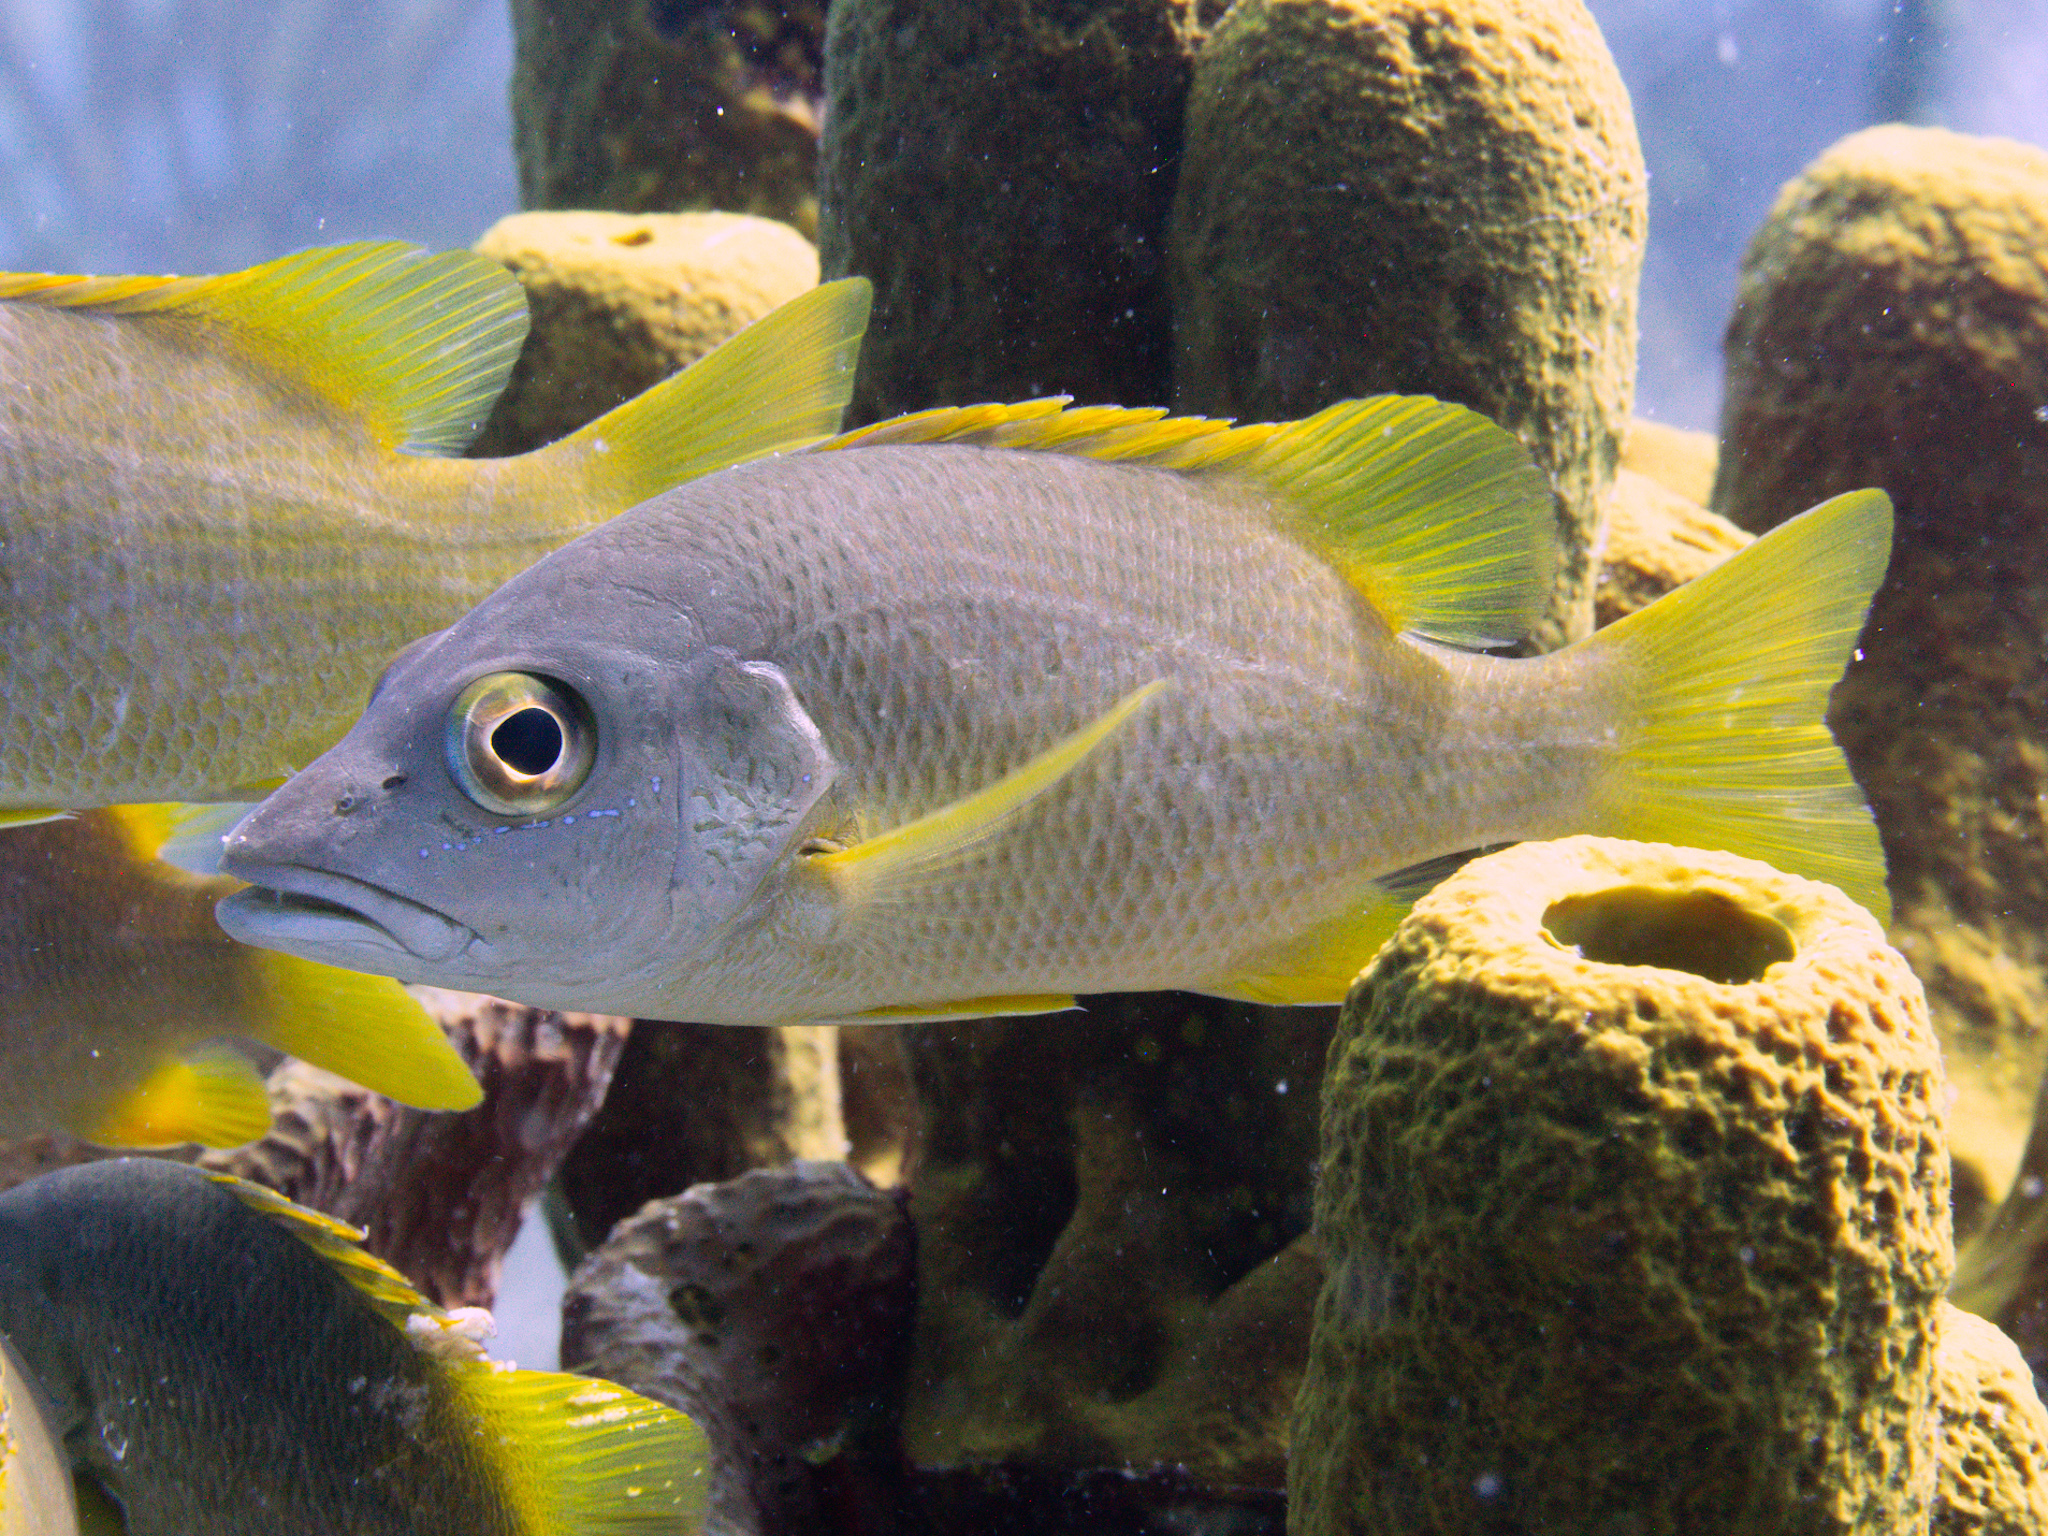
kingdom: Animalia
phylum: Chordata
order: Perciformes
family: Lutjanidae
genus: Lutjanus
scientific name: Lutjanus apodus
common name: Schoolmaster
